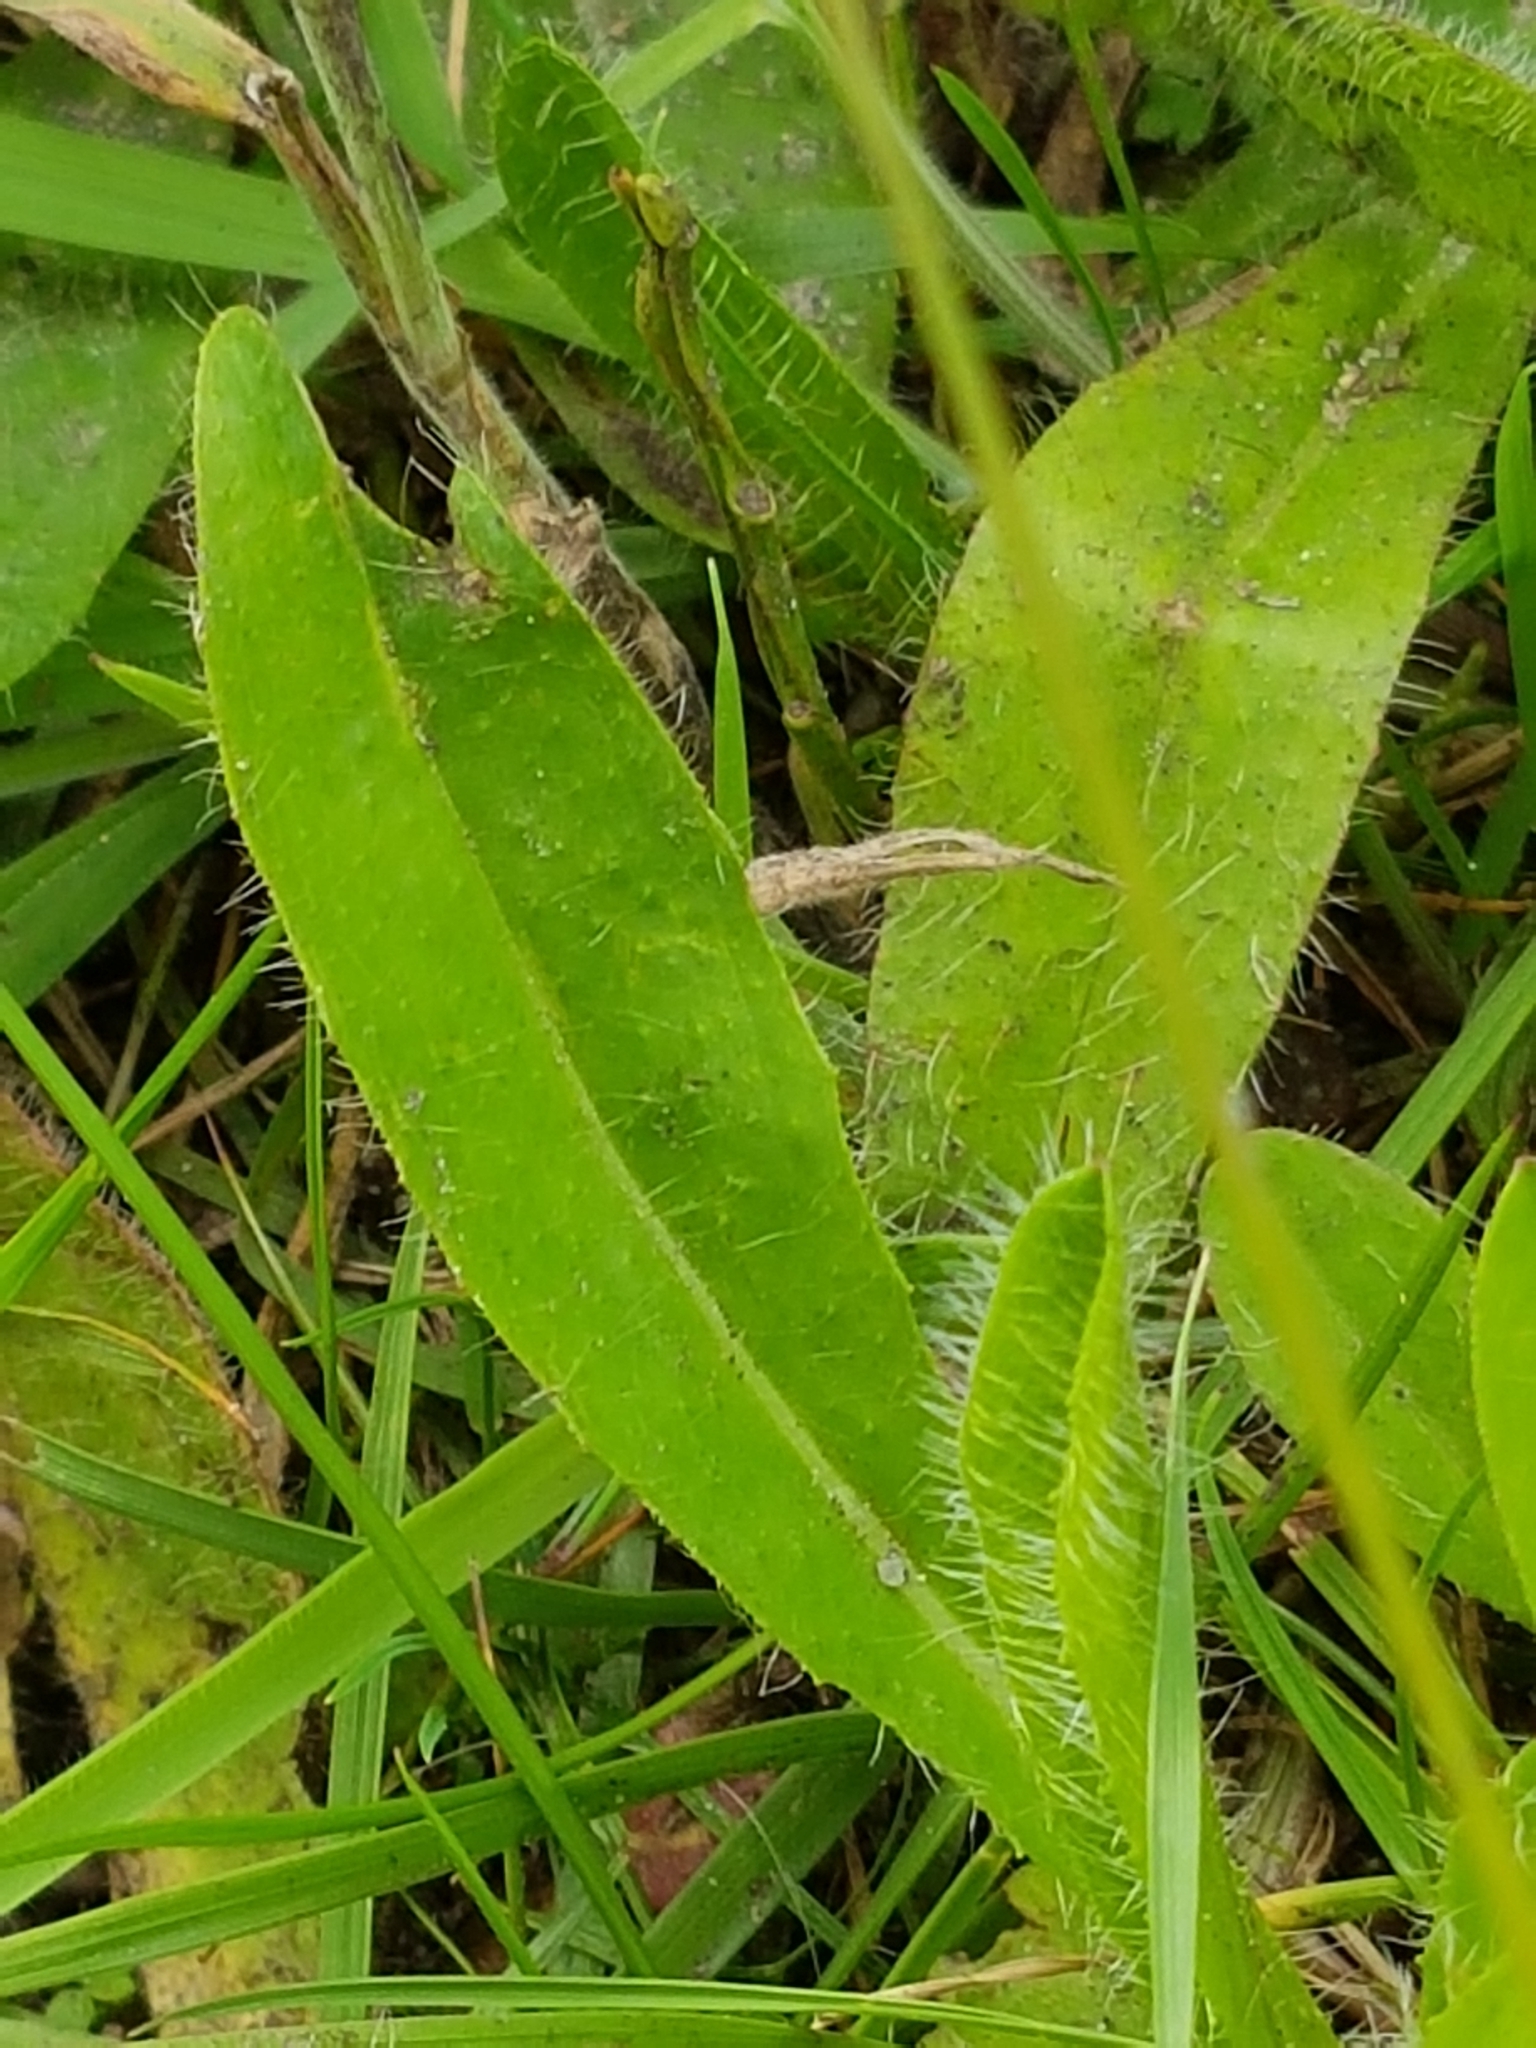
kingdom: Plantae
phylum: Tracheophyta
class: Magnoliopsida
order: Asterales
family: Asteraceae
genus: Pilosella
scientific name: Pilosella aurantiaca
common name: Fox-and-cubs
